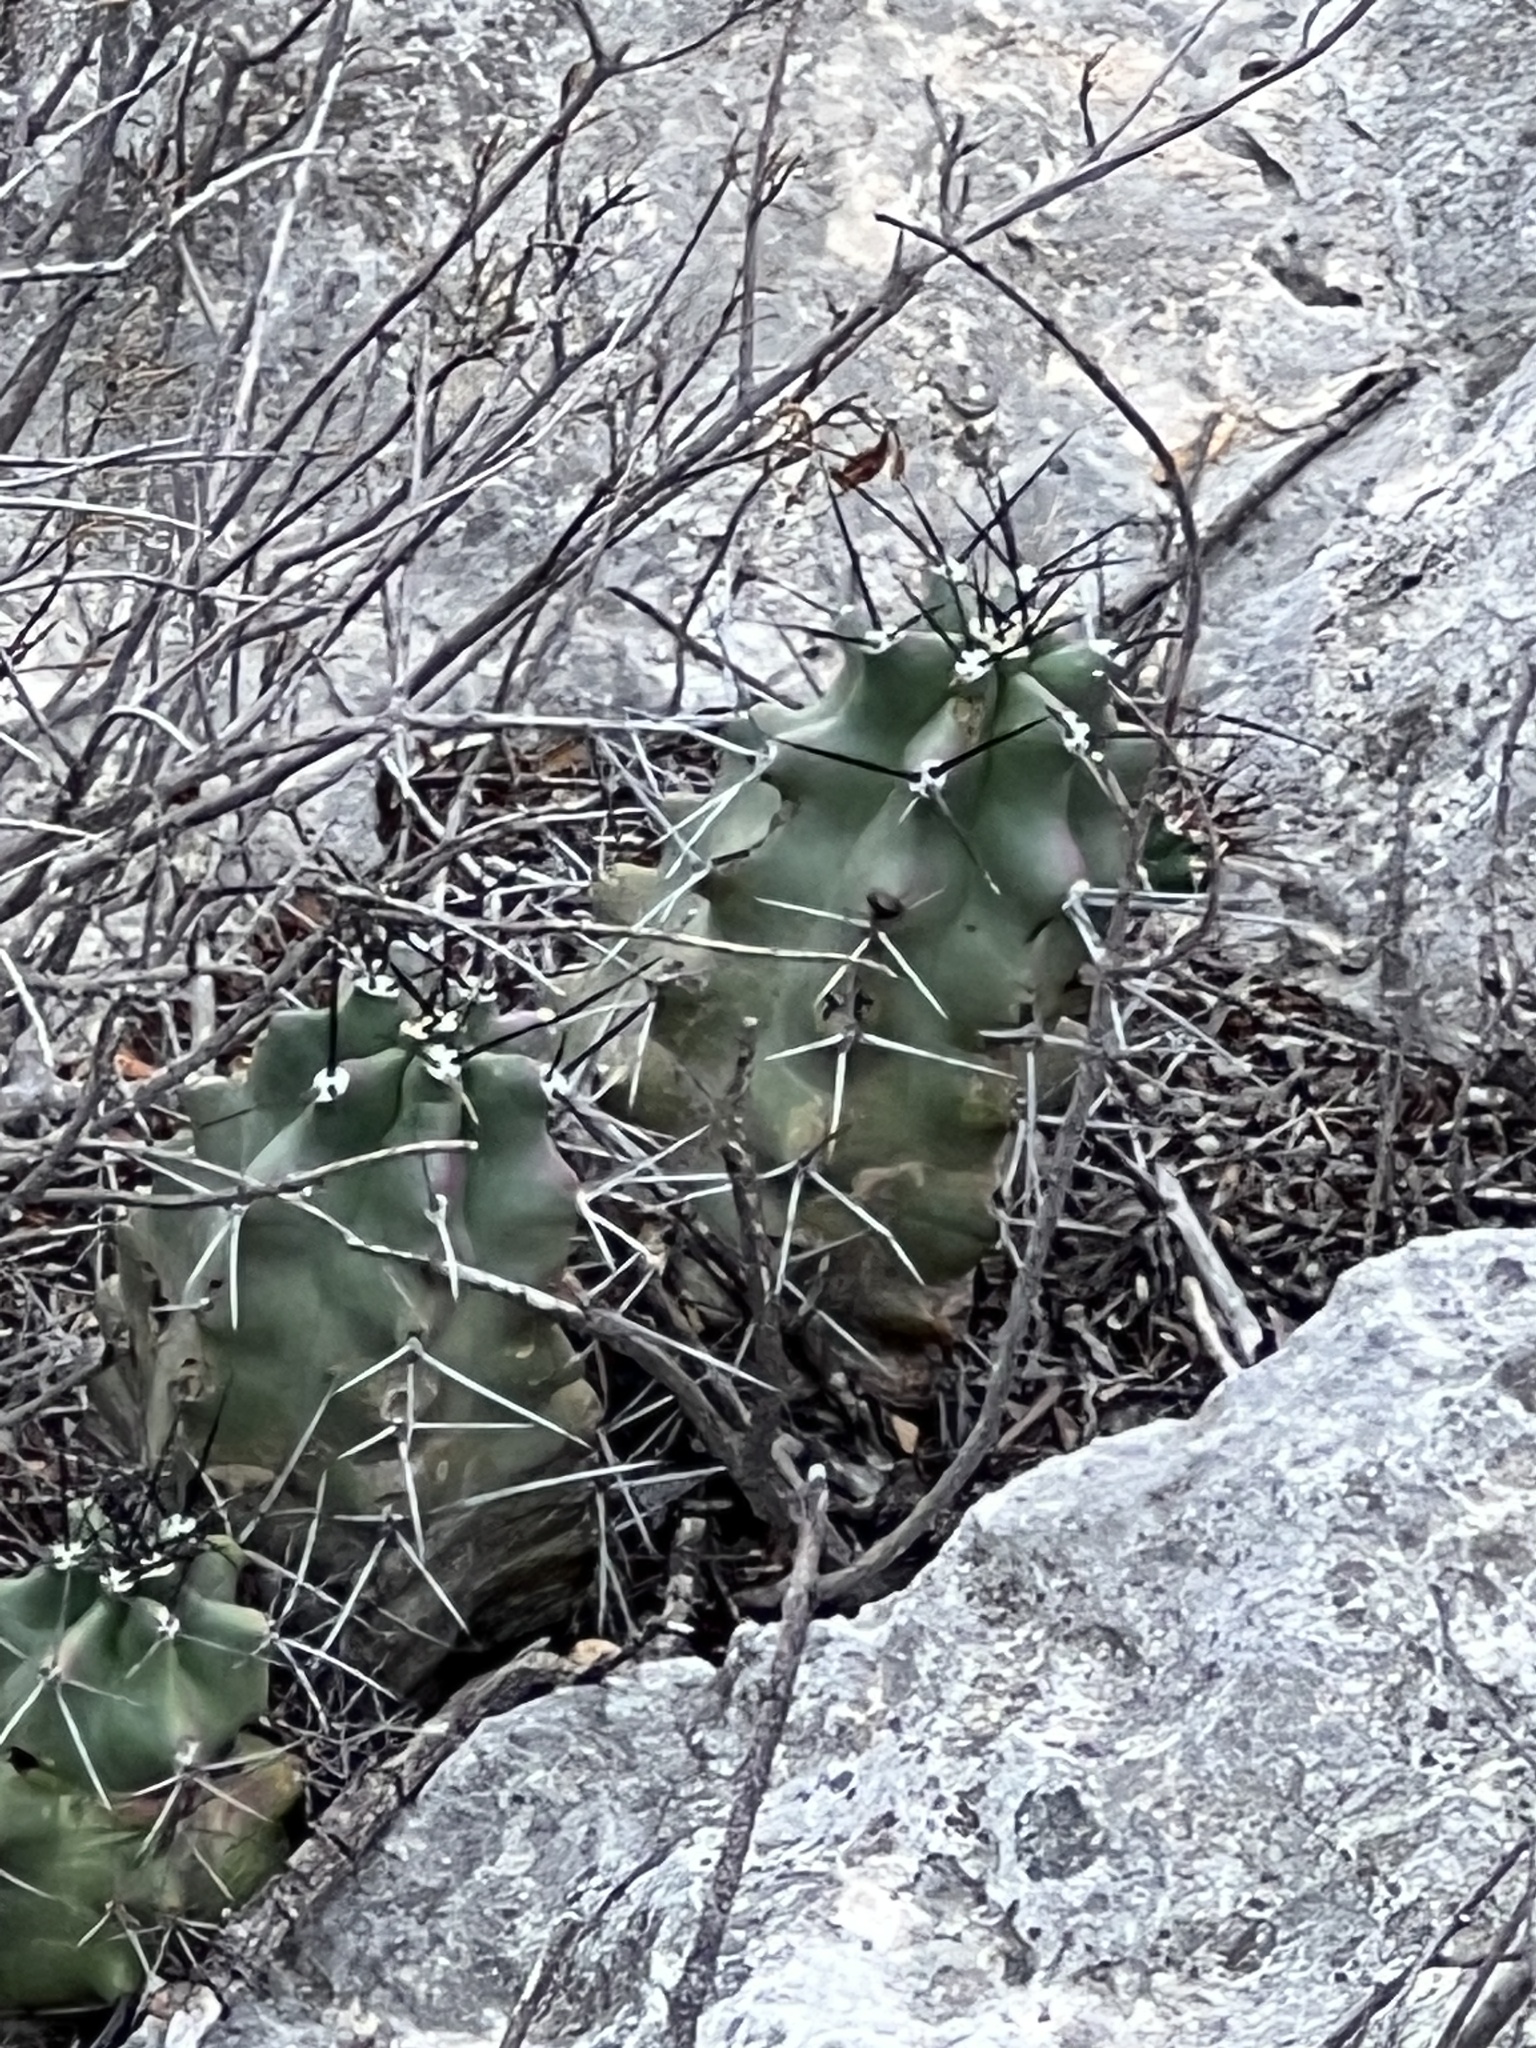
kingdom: Plantae
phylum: Tracheophyta
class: Magnoliopsida
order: Caryophyllales
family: Cactaceae
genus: Echinocereus
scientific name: Echinocereus coccineus
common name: Scarlet hedgehog cactus
